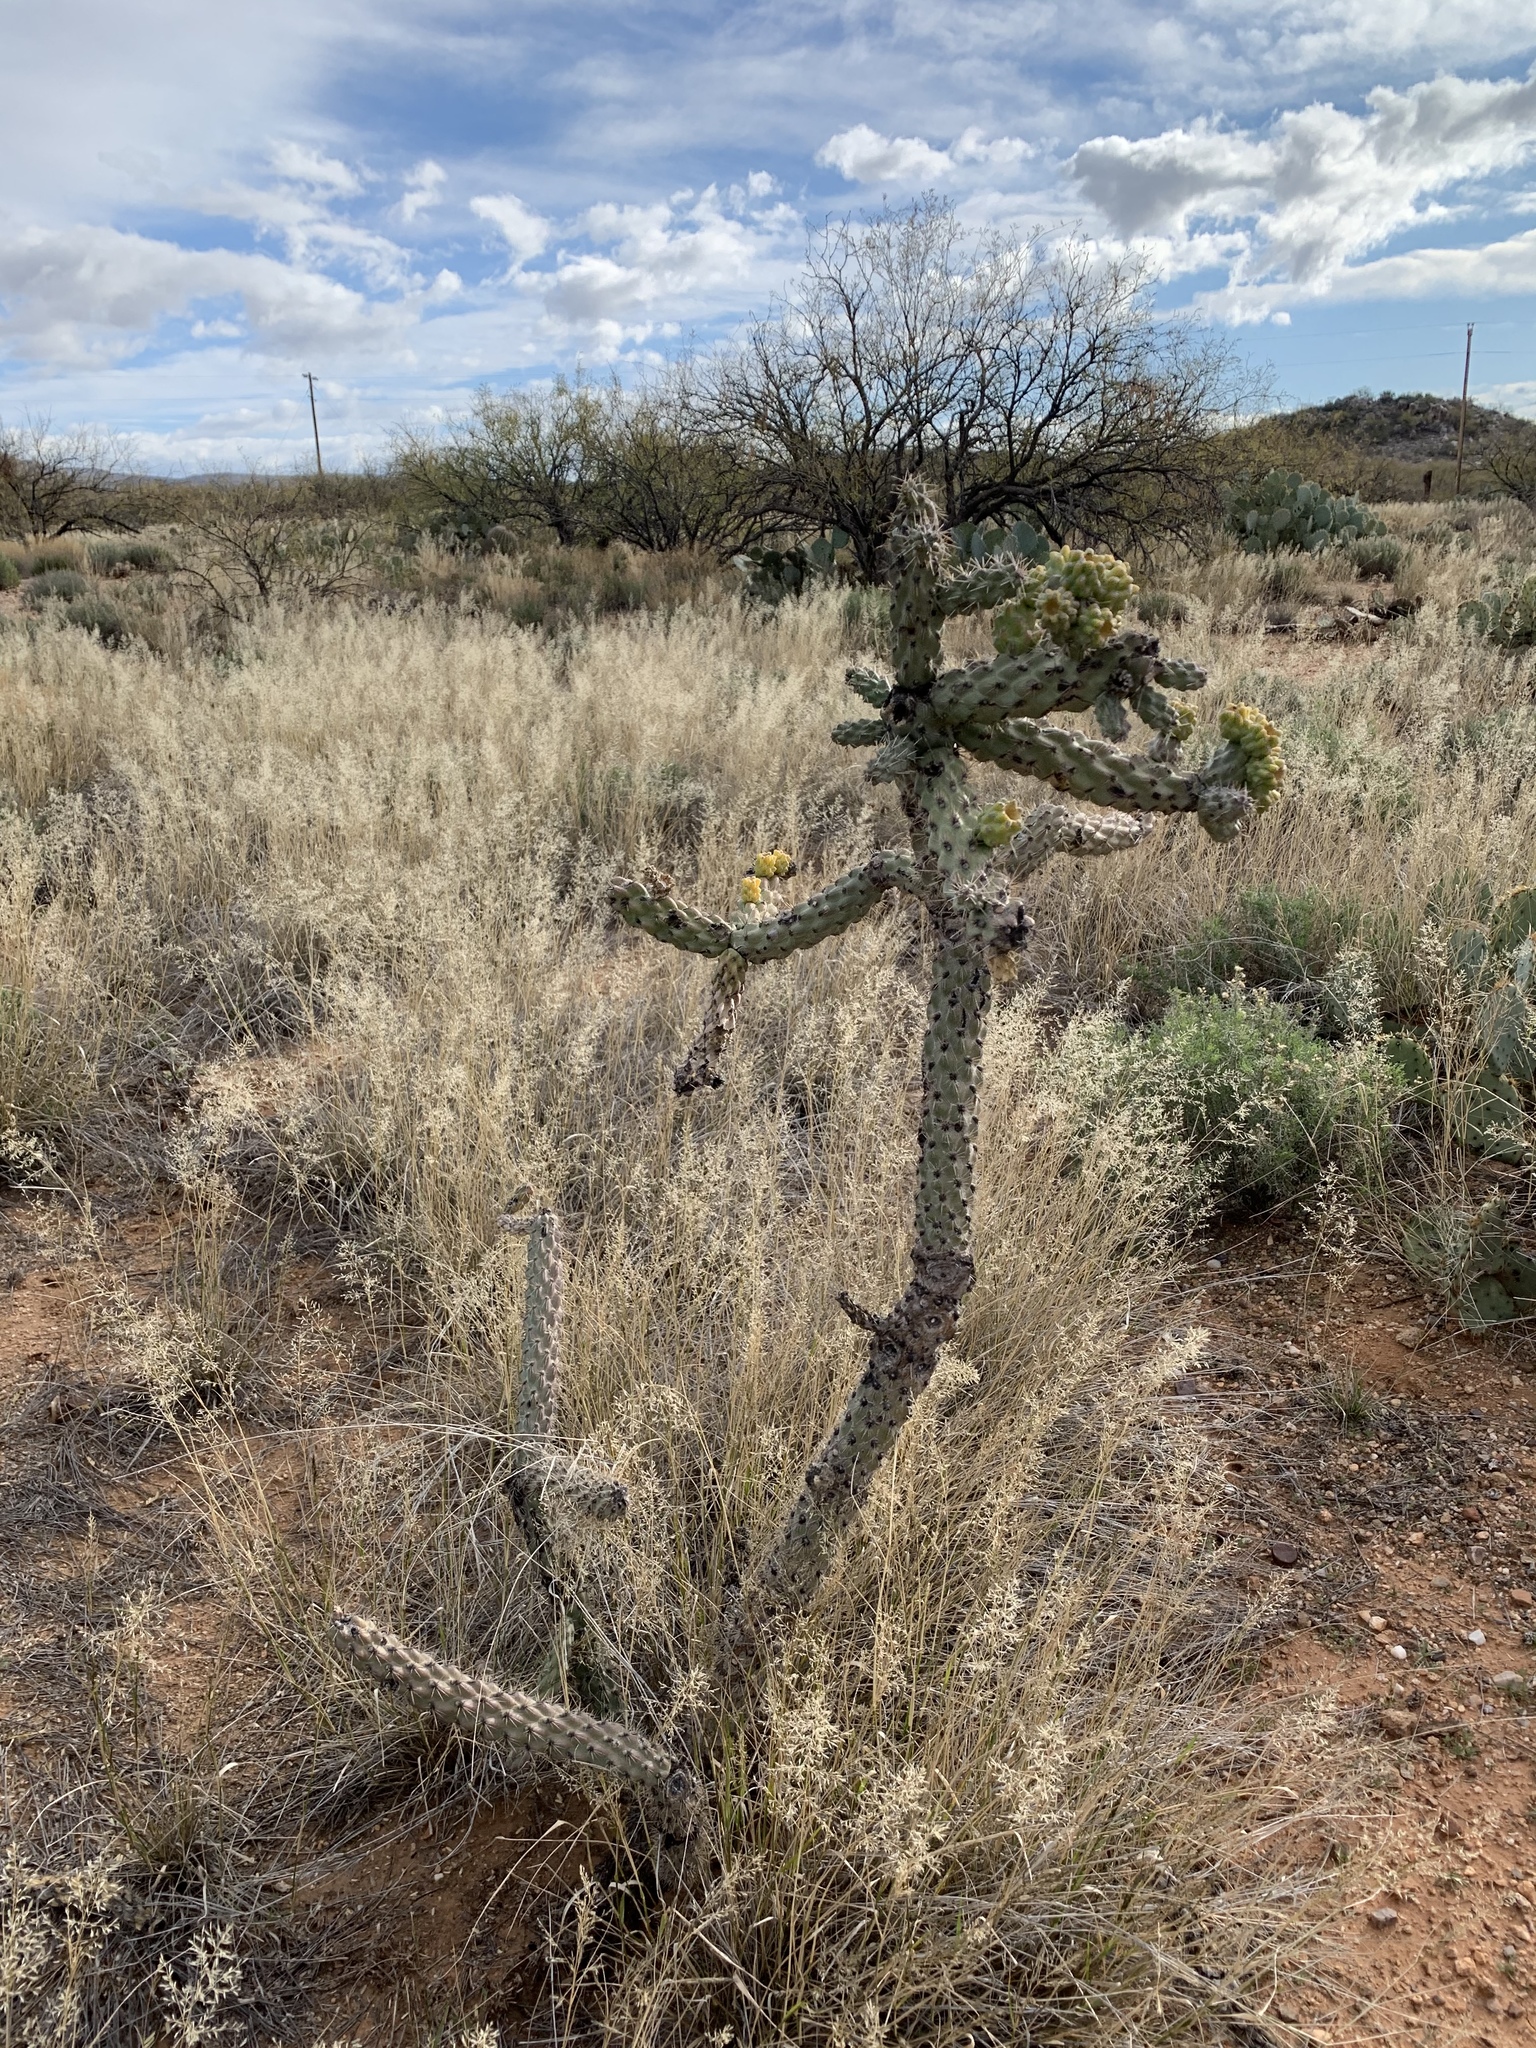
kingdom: Plantae
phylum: Tracheophyta
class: Magnoliopsida
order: Caryophyllales
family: Cactaceae
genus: Cylindropuntia
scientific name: Cylindropuntia imbricata
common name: Candelabrum cactus
